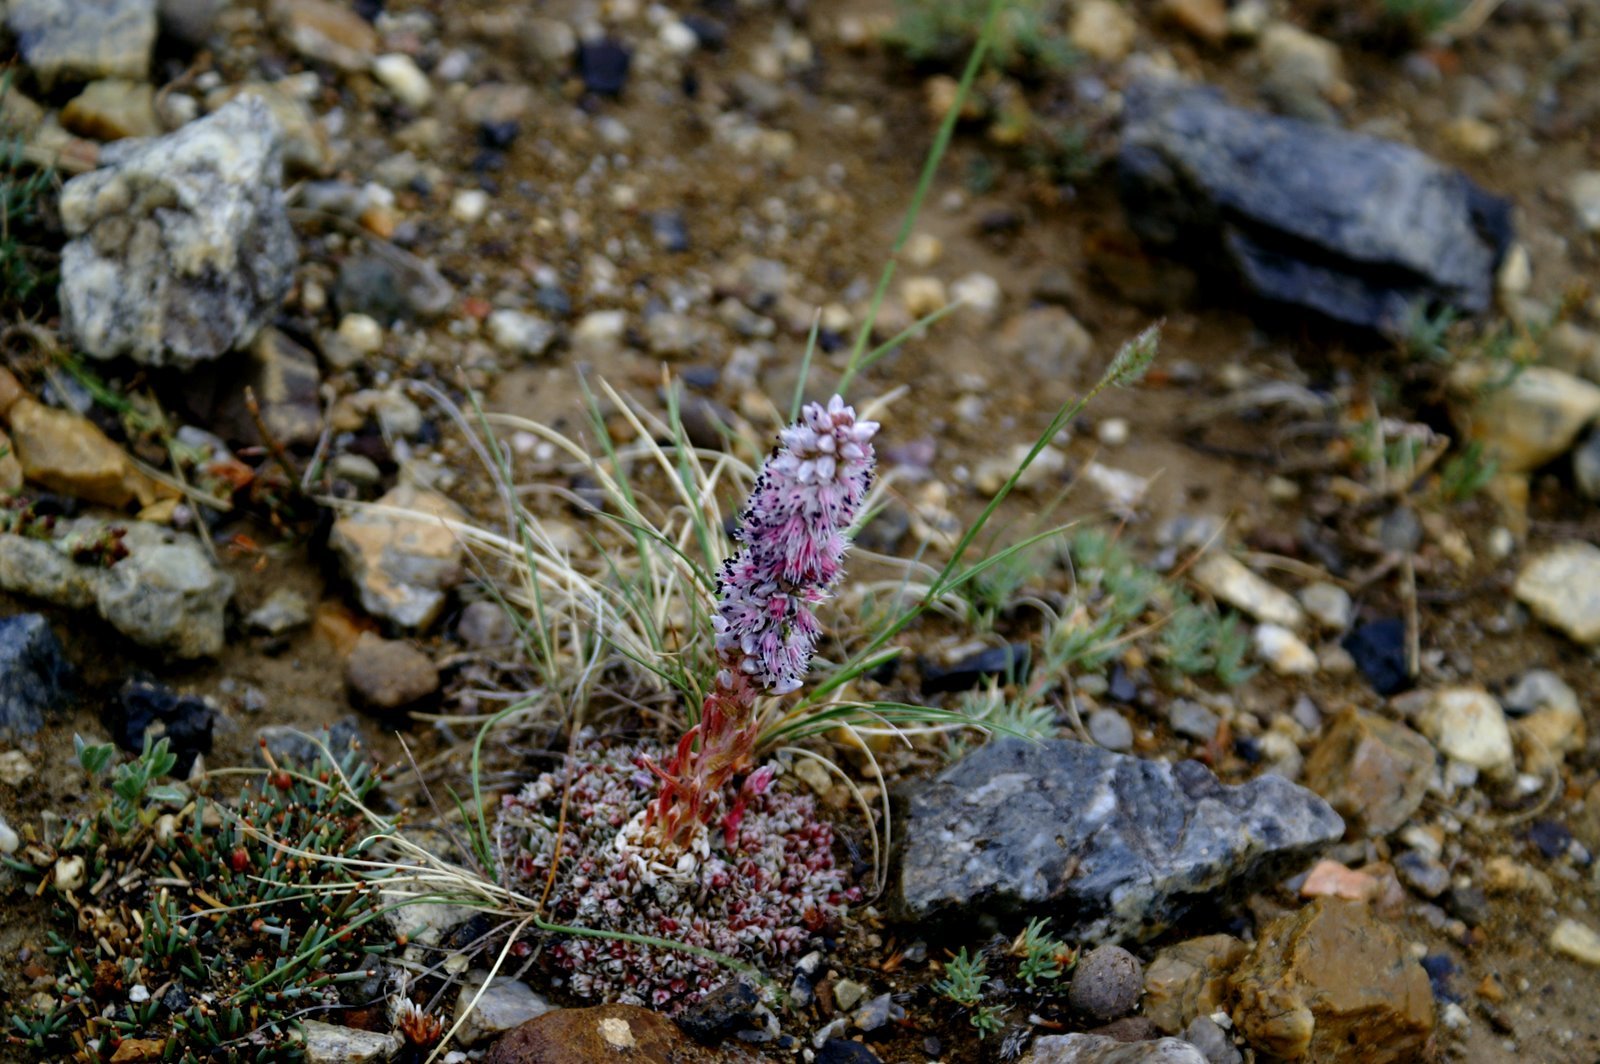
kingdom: Plantae
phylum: Tracheophyta
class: Magnoliopsida
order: Saxifragales
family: Crassulaceae
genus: Orostachys
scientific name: Orostachys thyrsiflora
